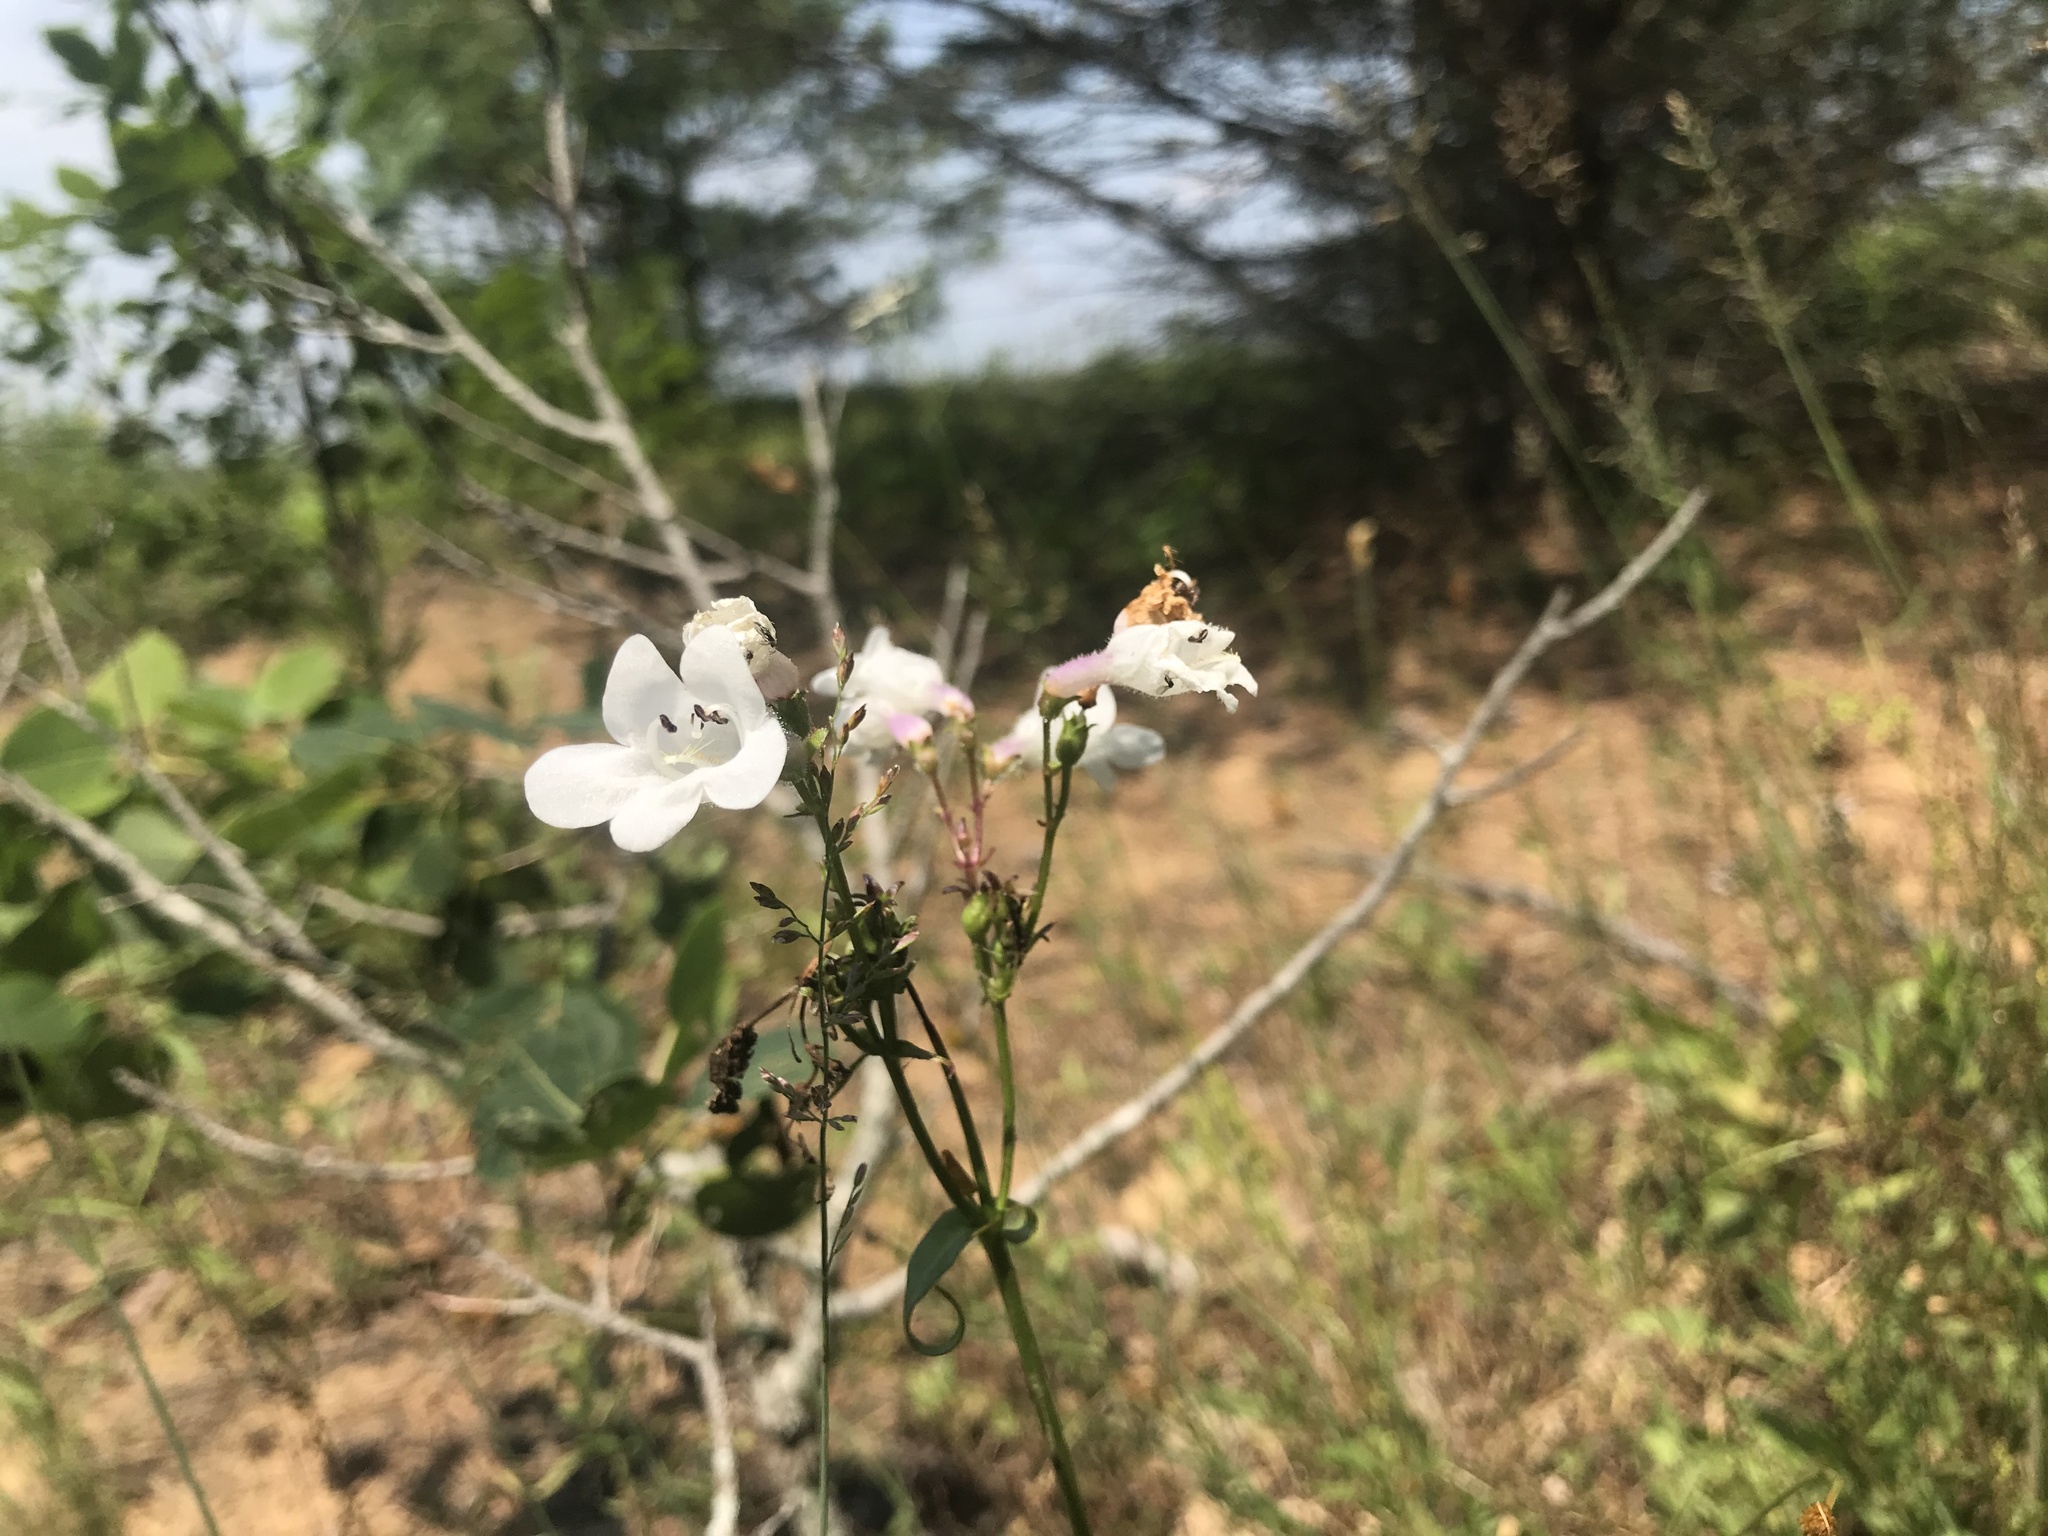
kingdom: Plantae
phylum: Tracheophyta
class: Magnoliopsida
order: Lamiales
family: Plantaginaceae
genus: Penstemon
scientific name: Penstemon digitalis
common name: Foxglove beardtongue
